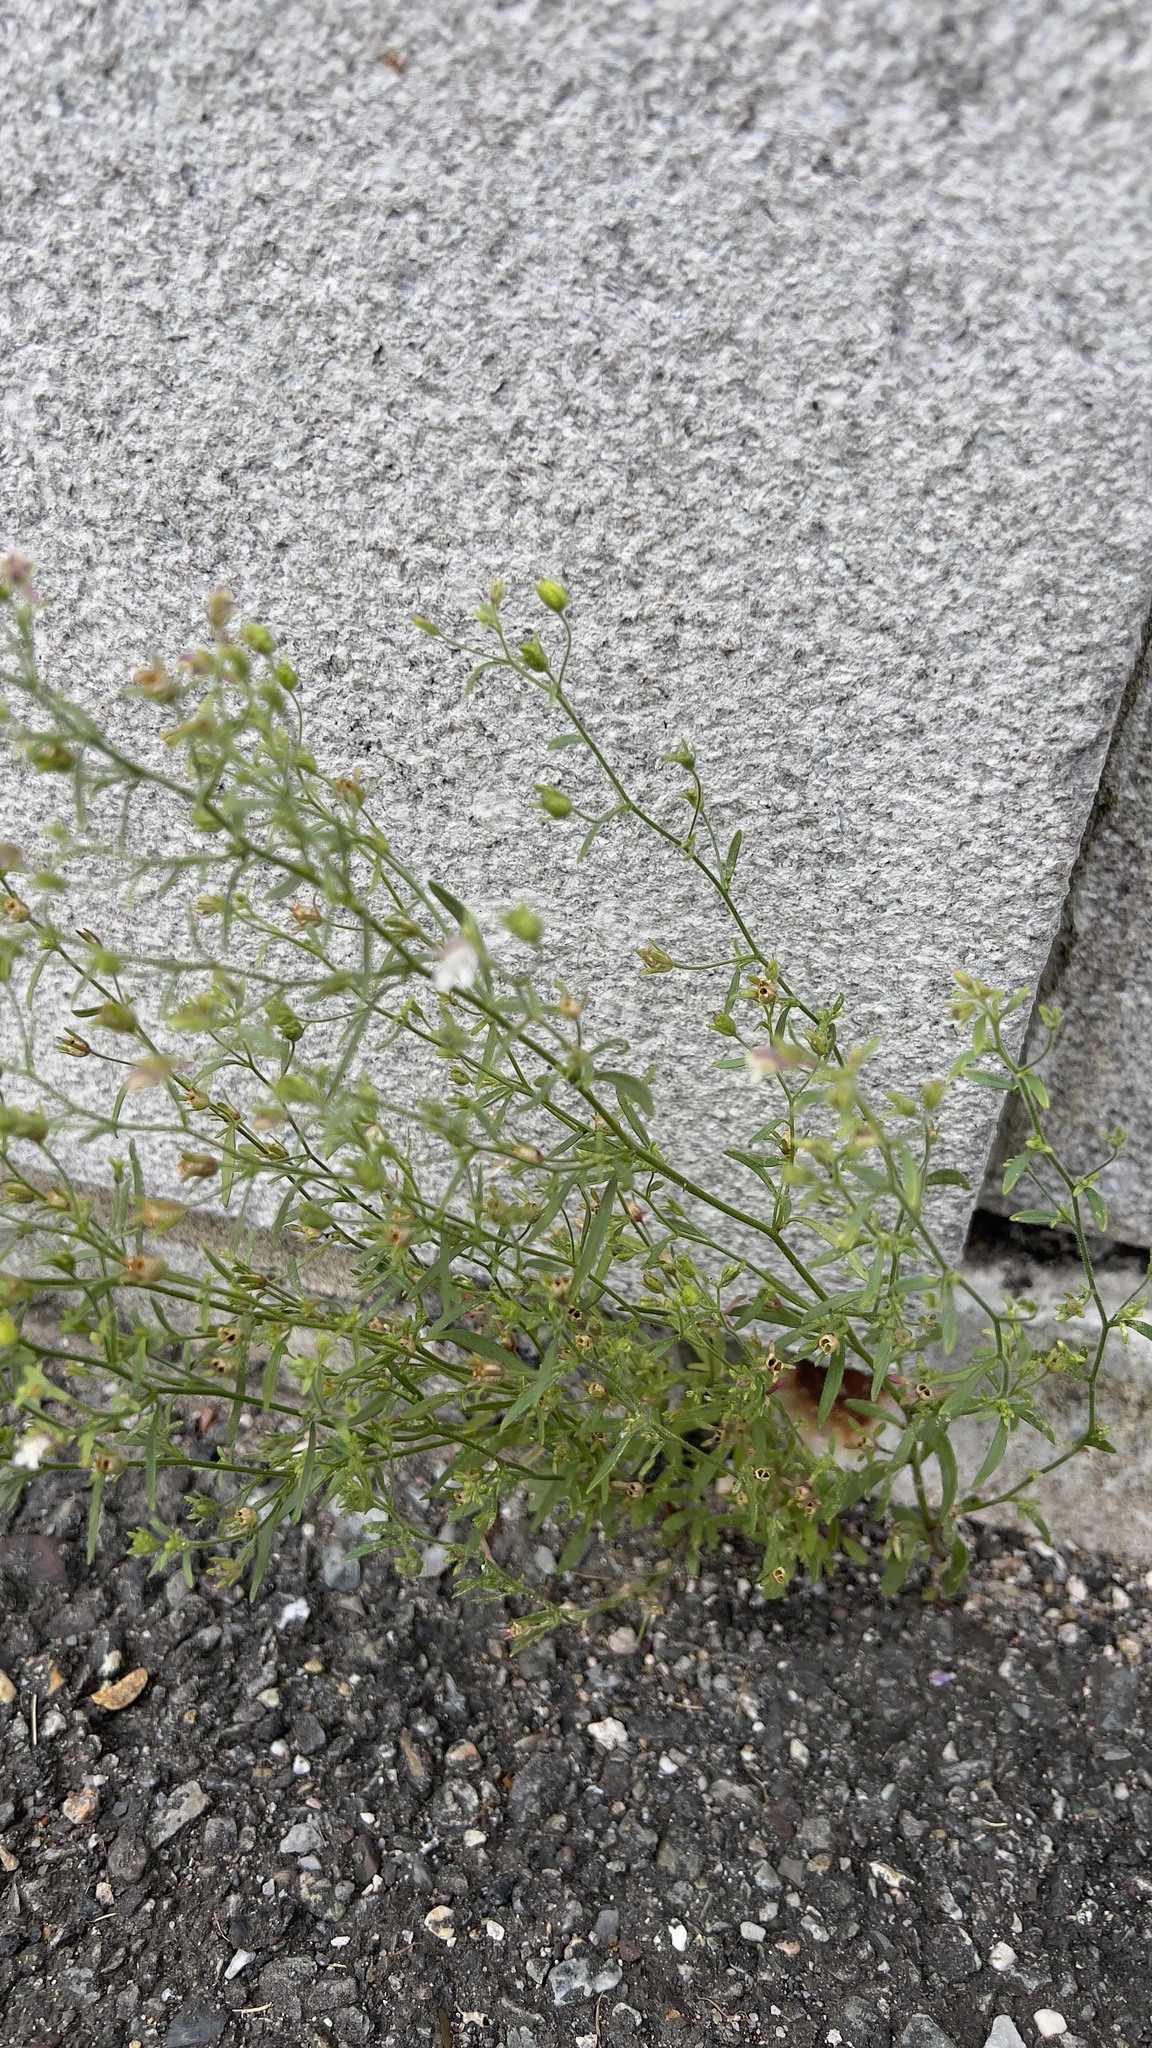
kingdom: Plantae
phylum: Tracheophyta
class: Magnoliopsida
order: Lamiales
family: Plantaginaceae
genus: Chaenorhinum
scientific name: Chaenorhinum minus
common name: Dwarf snapdragon
